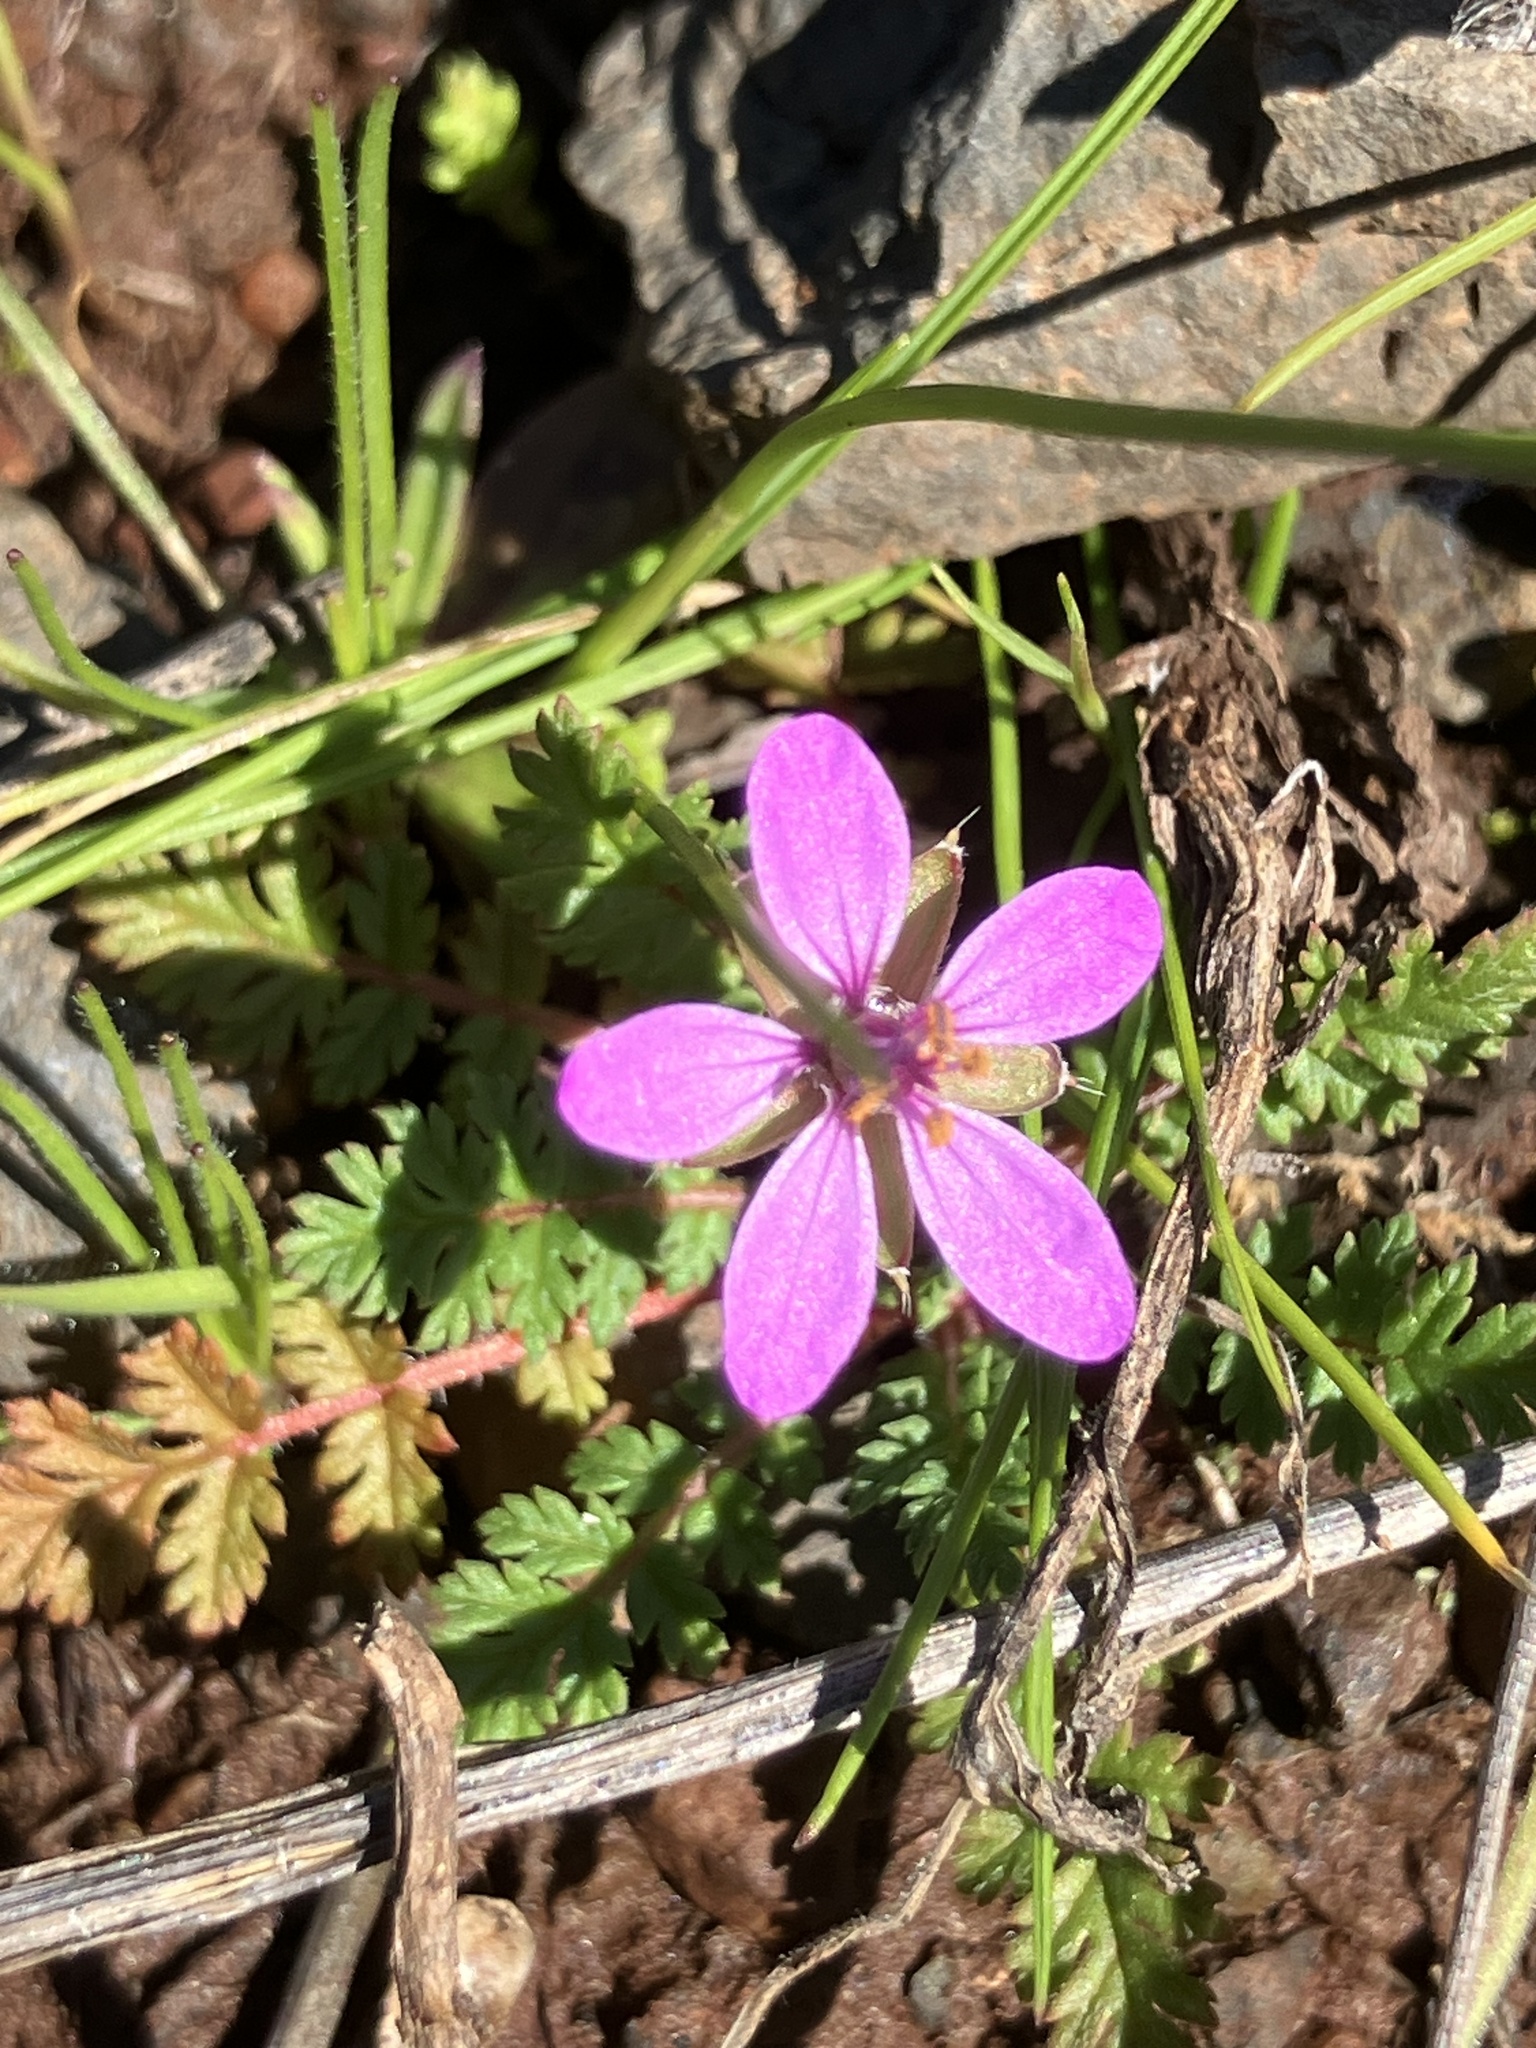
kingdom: Plantae
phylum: Tracheophyta
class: Magnoliopsida
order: Geraniales
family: Geraniaceae
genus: Erodium
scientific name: Erodium cicutarium
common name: Common stork's-bill
